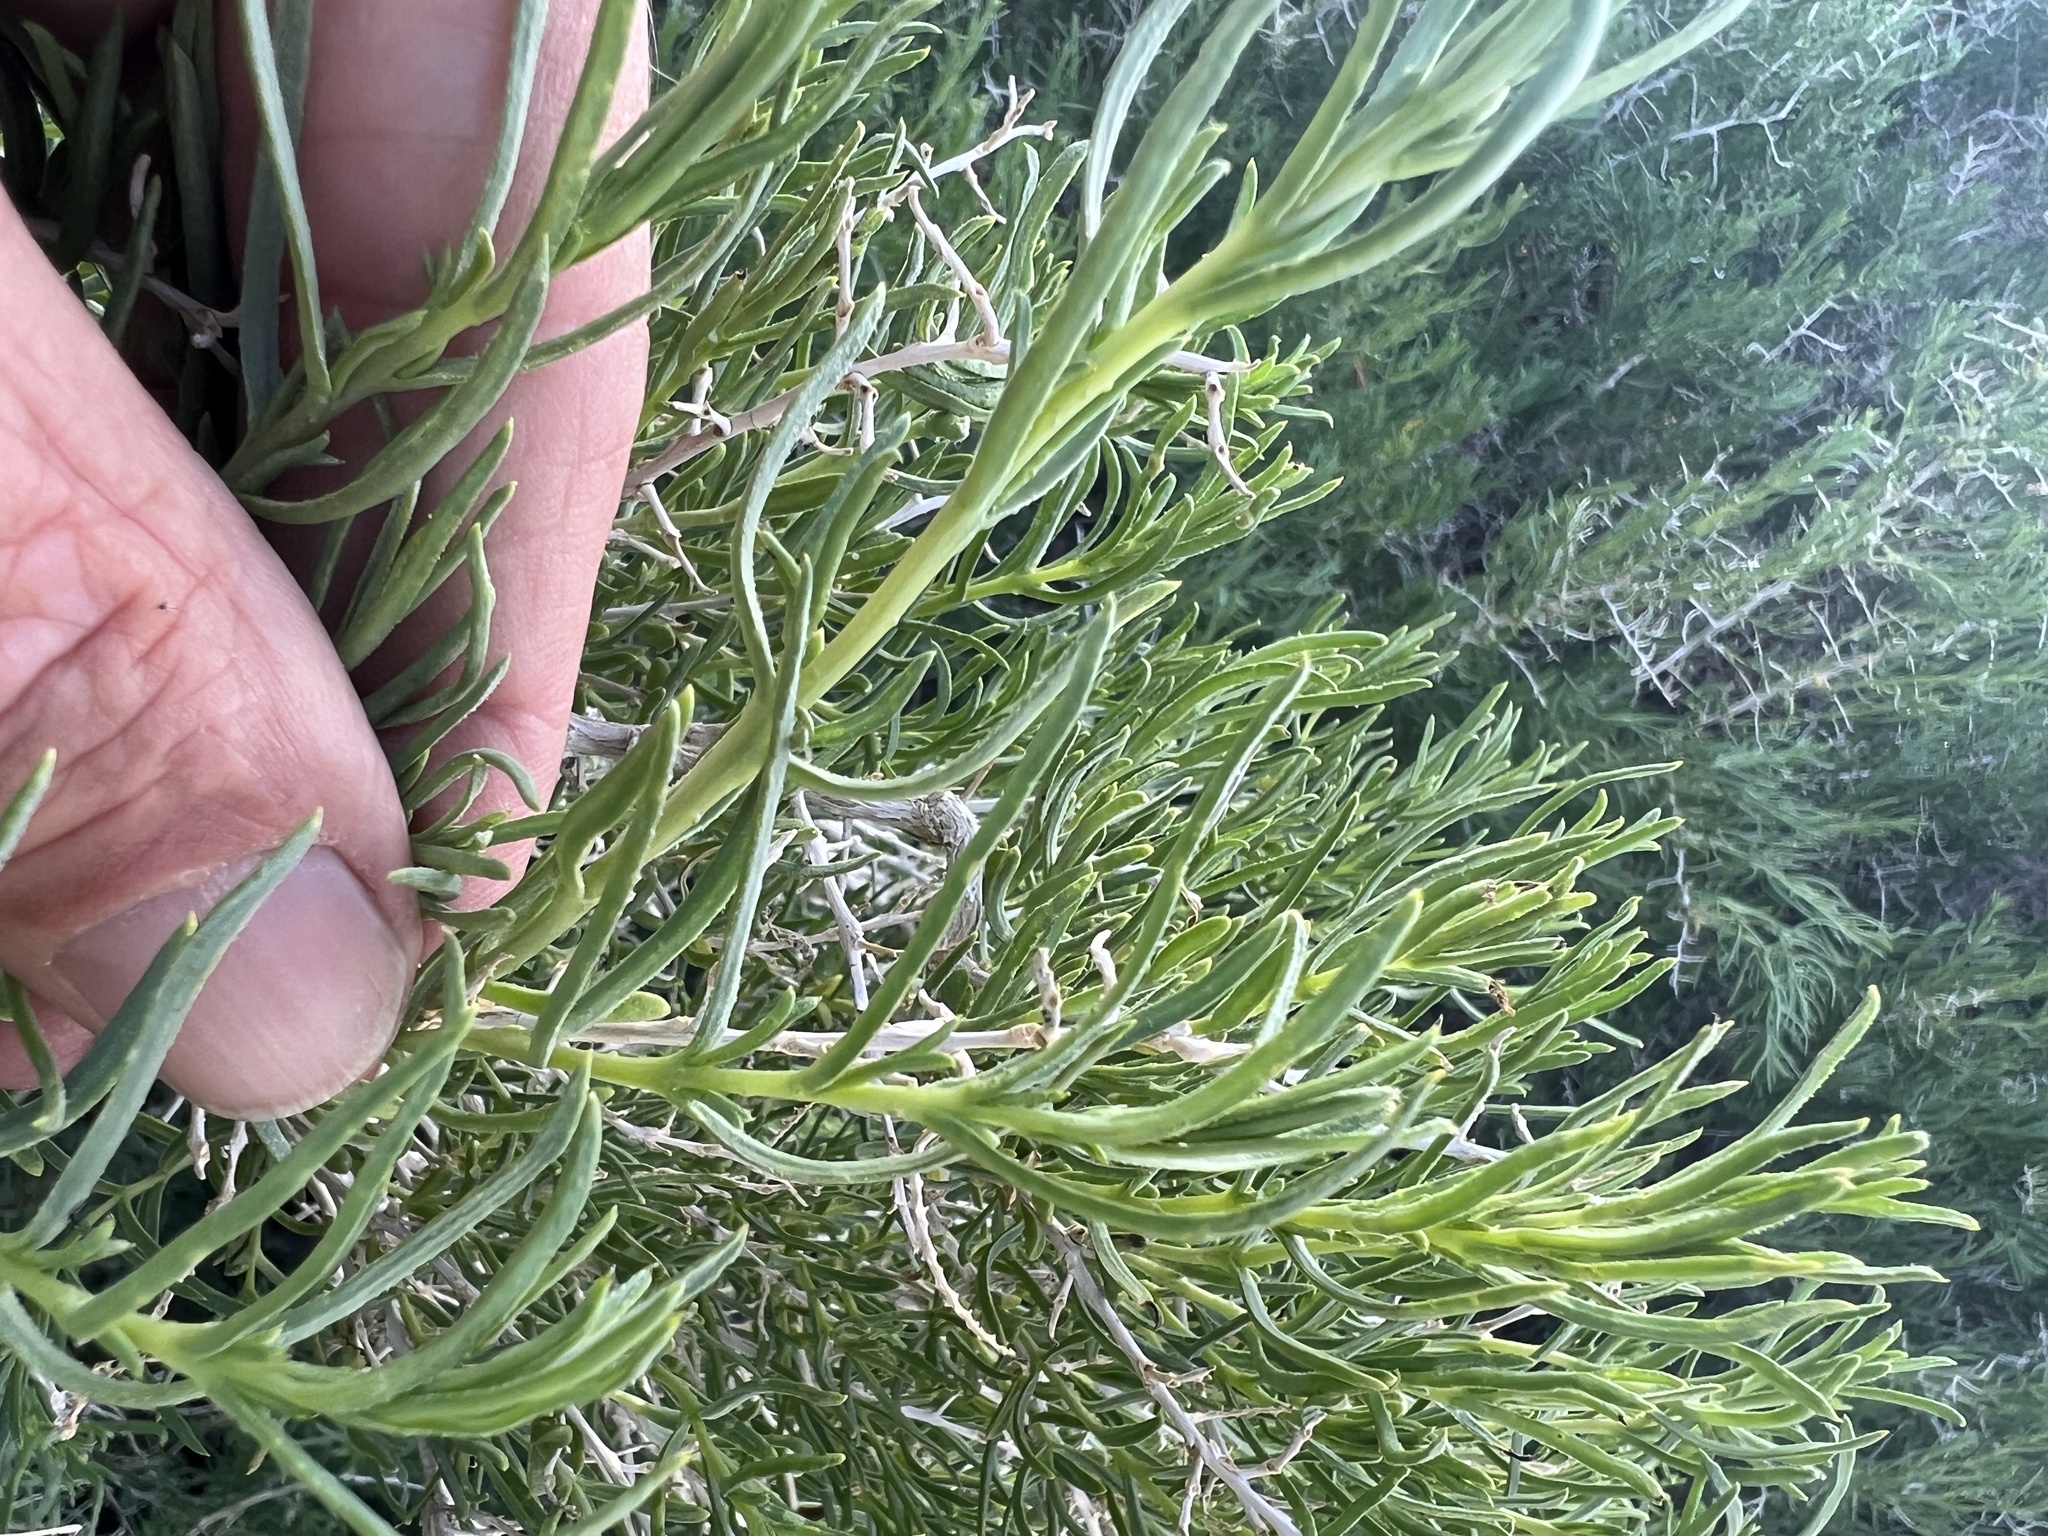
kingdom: Plantae
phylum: Tracheophyta
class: Magnoliopsida
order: Caryophyllales
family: Sarcobataceae
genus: Sarcobatus
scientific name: Sarcobatus vermiculatus
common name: Greasewood
